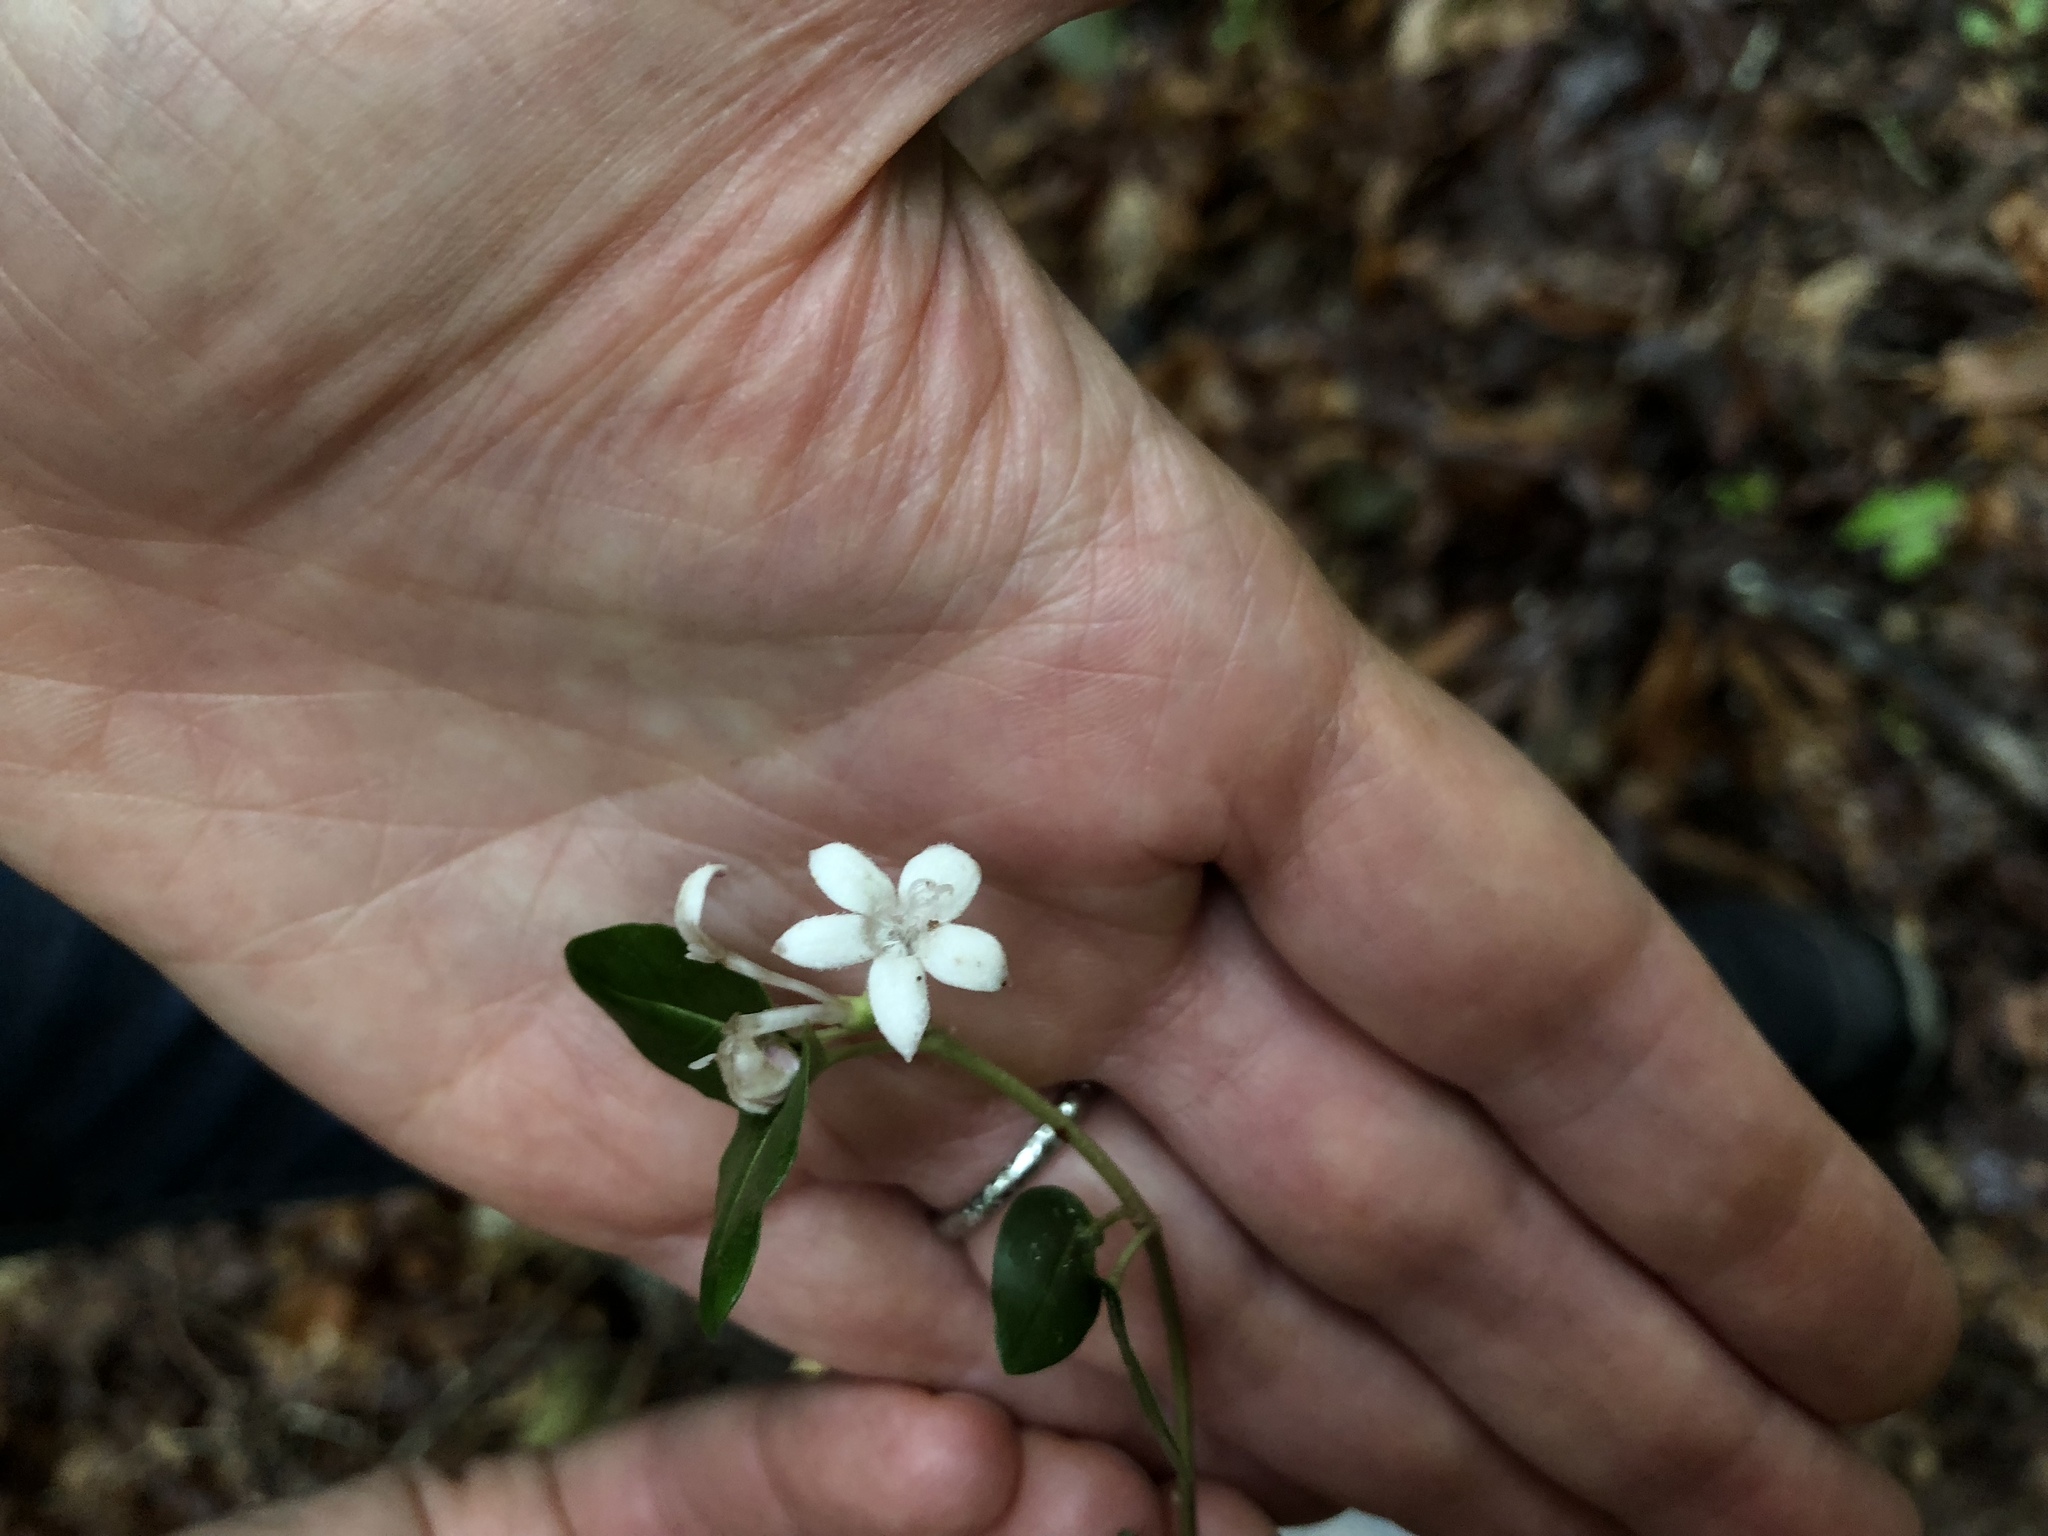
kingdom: Plantae
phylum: Tracheophyta
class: Magnoliopsida
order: Gentianales
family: Rubiaceae
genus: Mitchella
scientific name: Mitchella repens
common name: Partridge-berry
